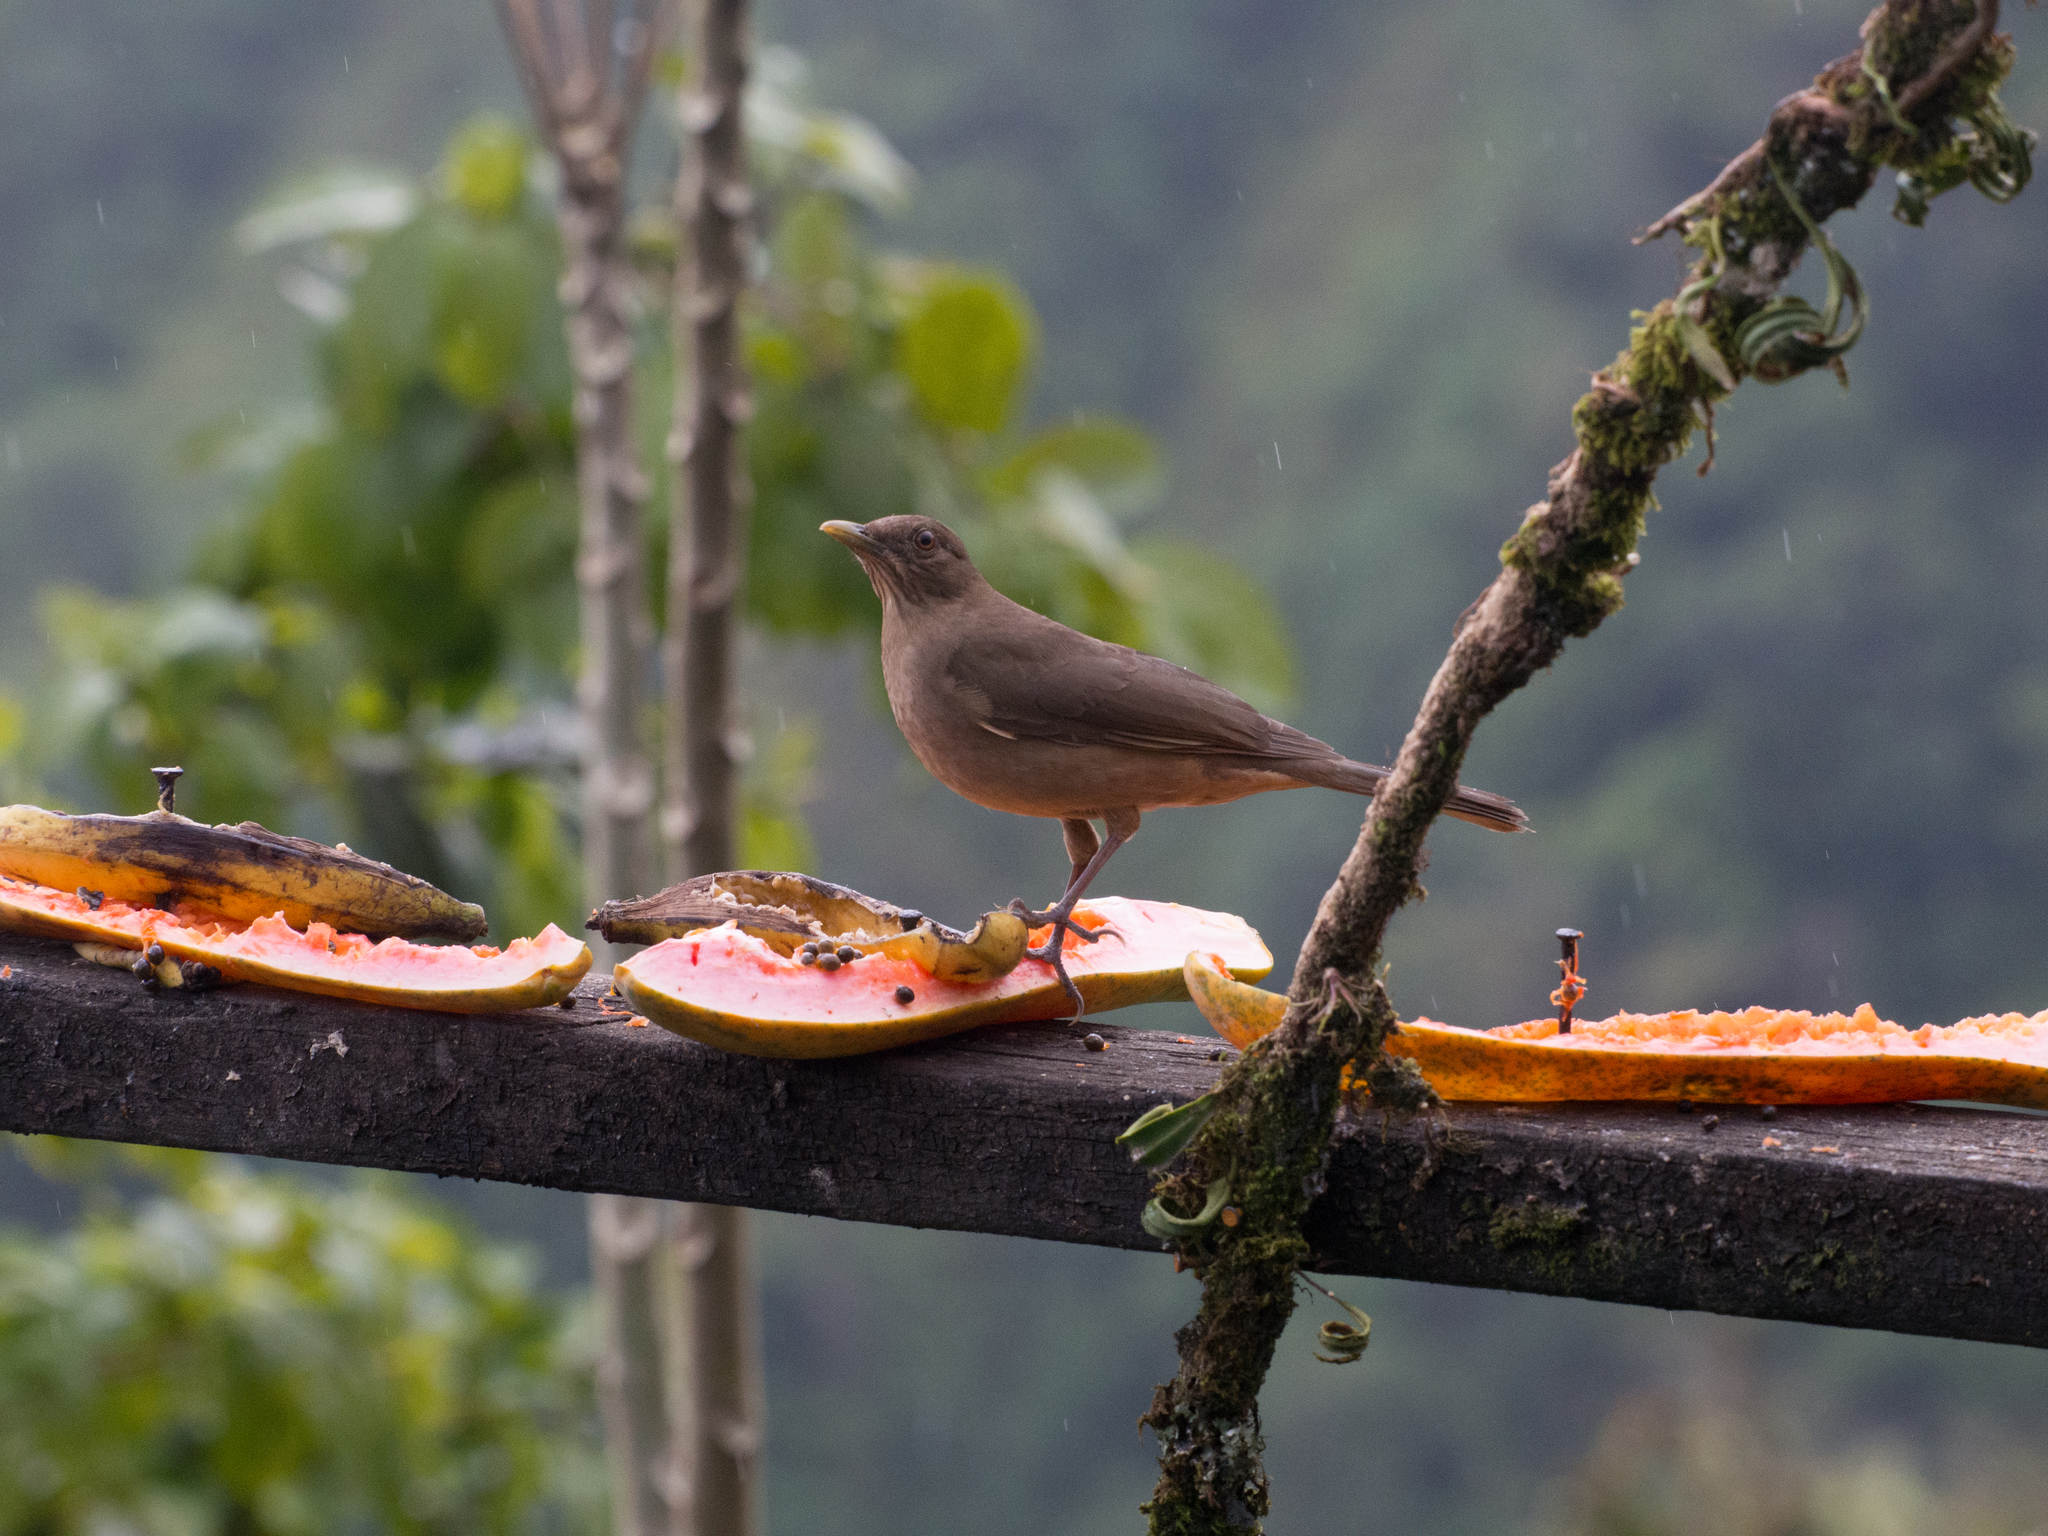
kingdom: Animalia
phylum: Chordata
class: Aves
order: Passeriformes
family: Turdidae
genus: Turdus
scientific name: Turdus grayi
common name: Clay-colored thrush
